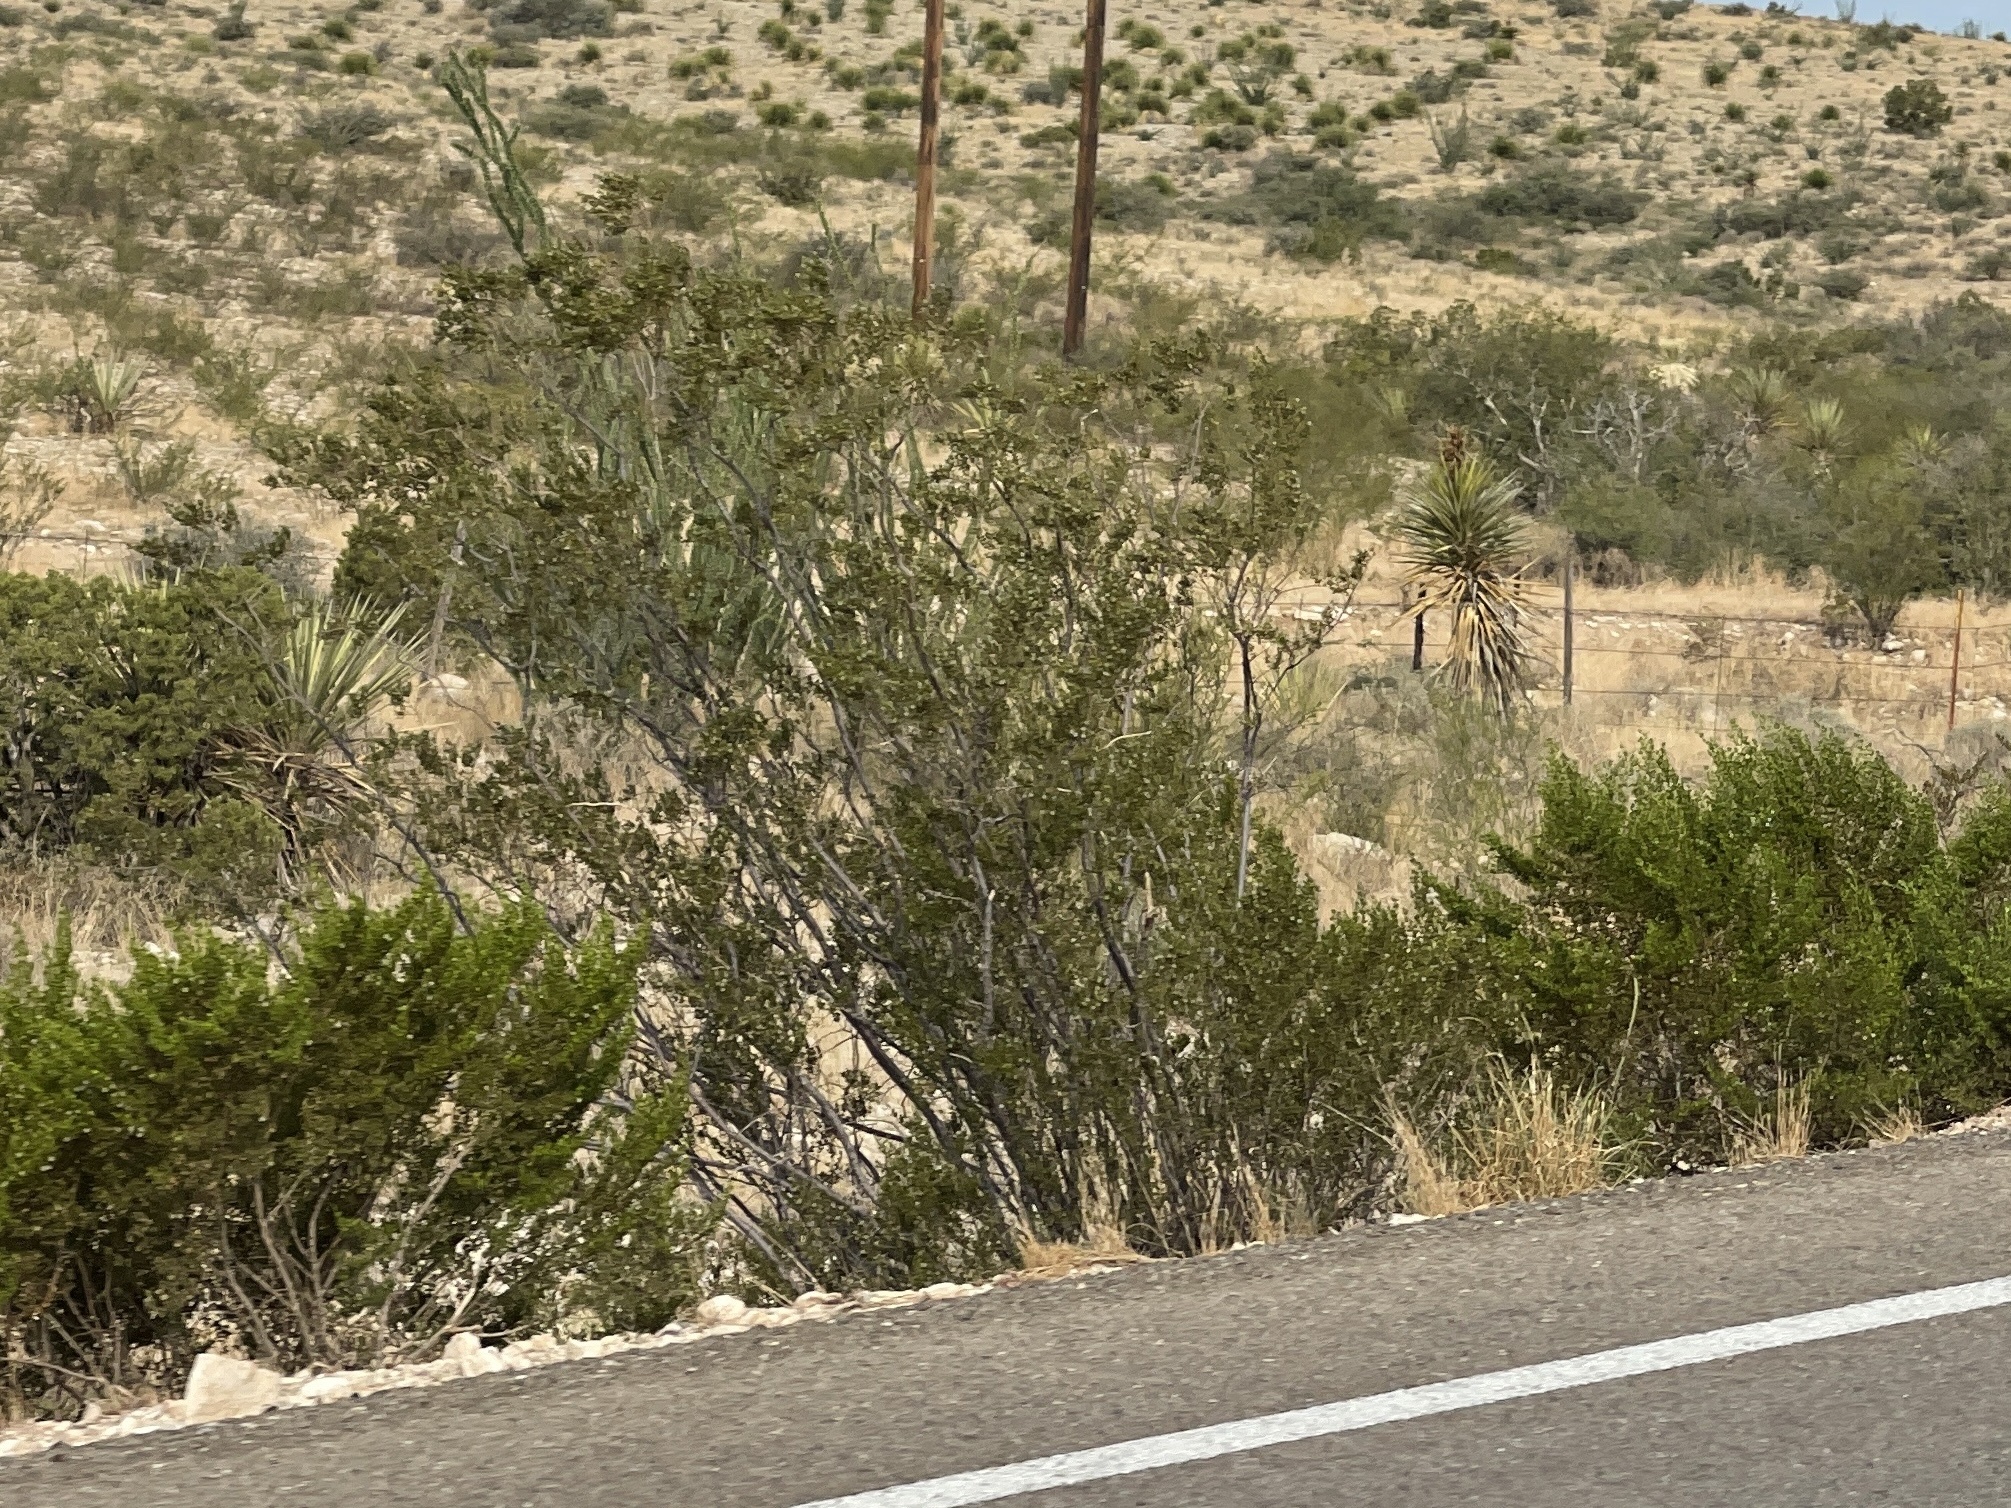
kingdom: Plantae
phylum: Tracheophyta
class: Magnoliopsida
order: Zygophyllales
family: Zygophyllaceae
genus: Larrea
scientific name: Larrea tridentata
